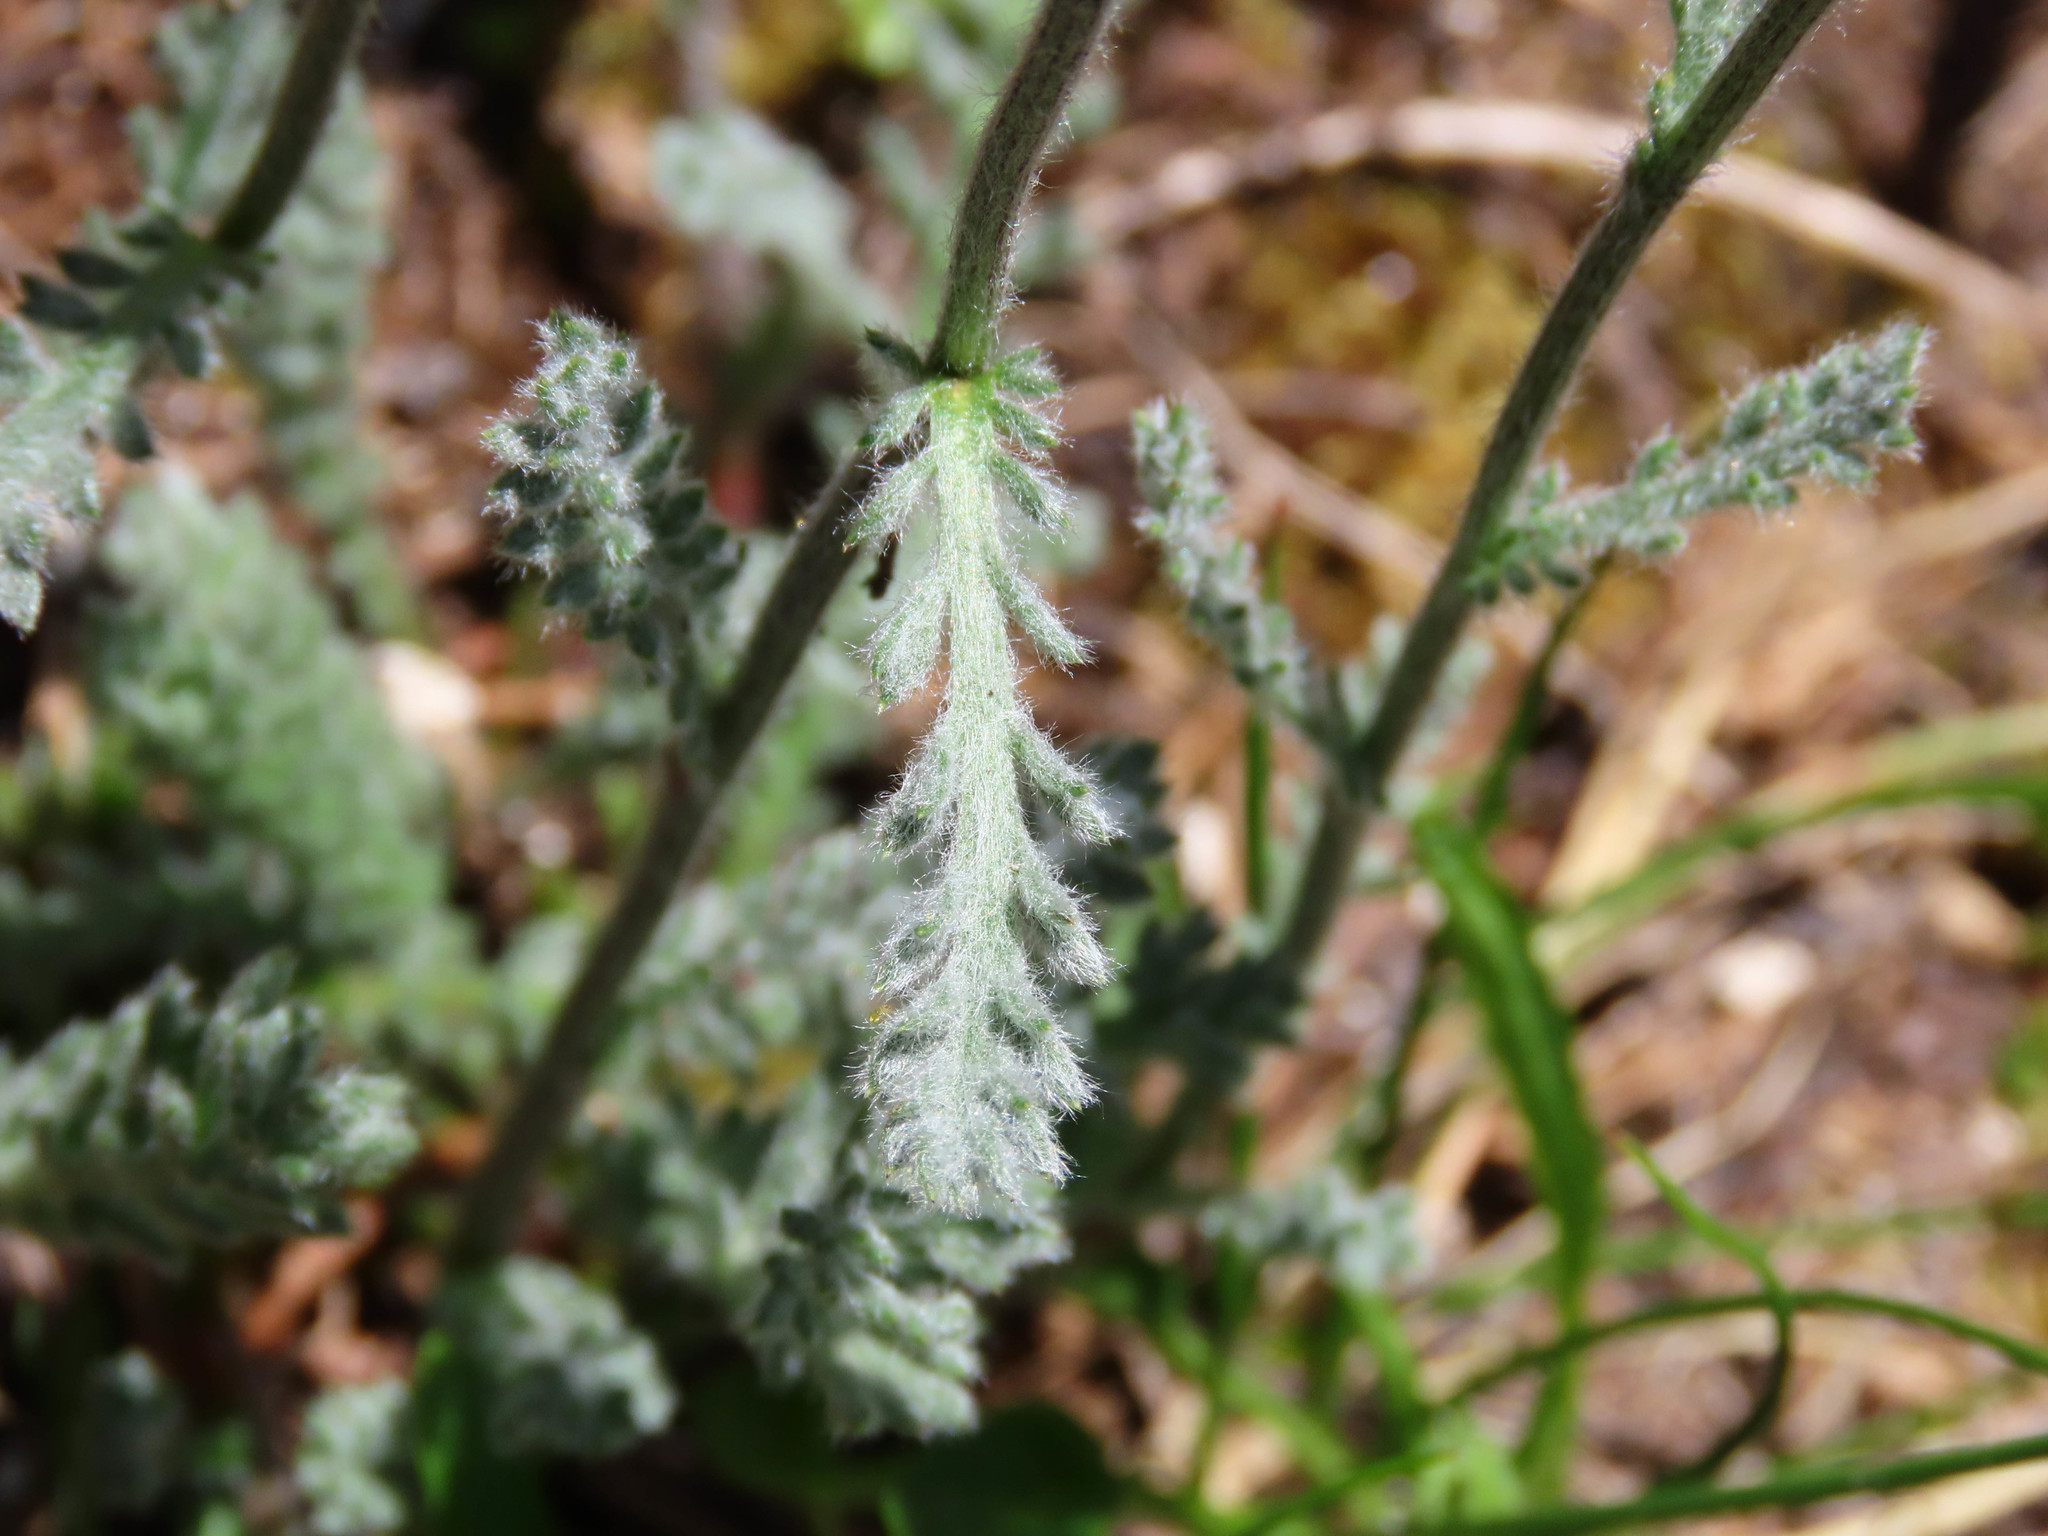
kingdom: Plantae
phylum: Tracheophyta
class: Magnoliopsida
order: Asterales
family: Asteraceae
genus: Achillea
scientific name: Achillea barrelieri
